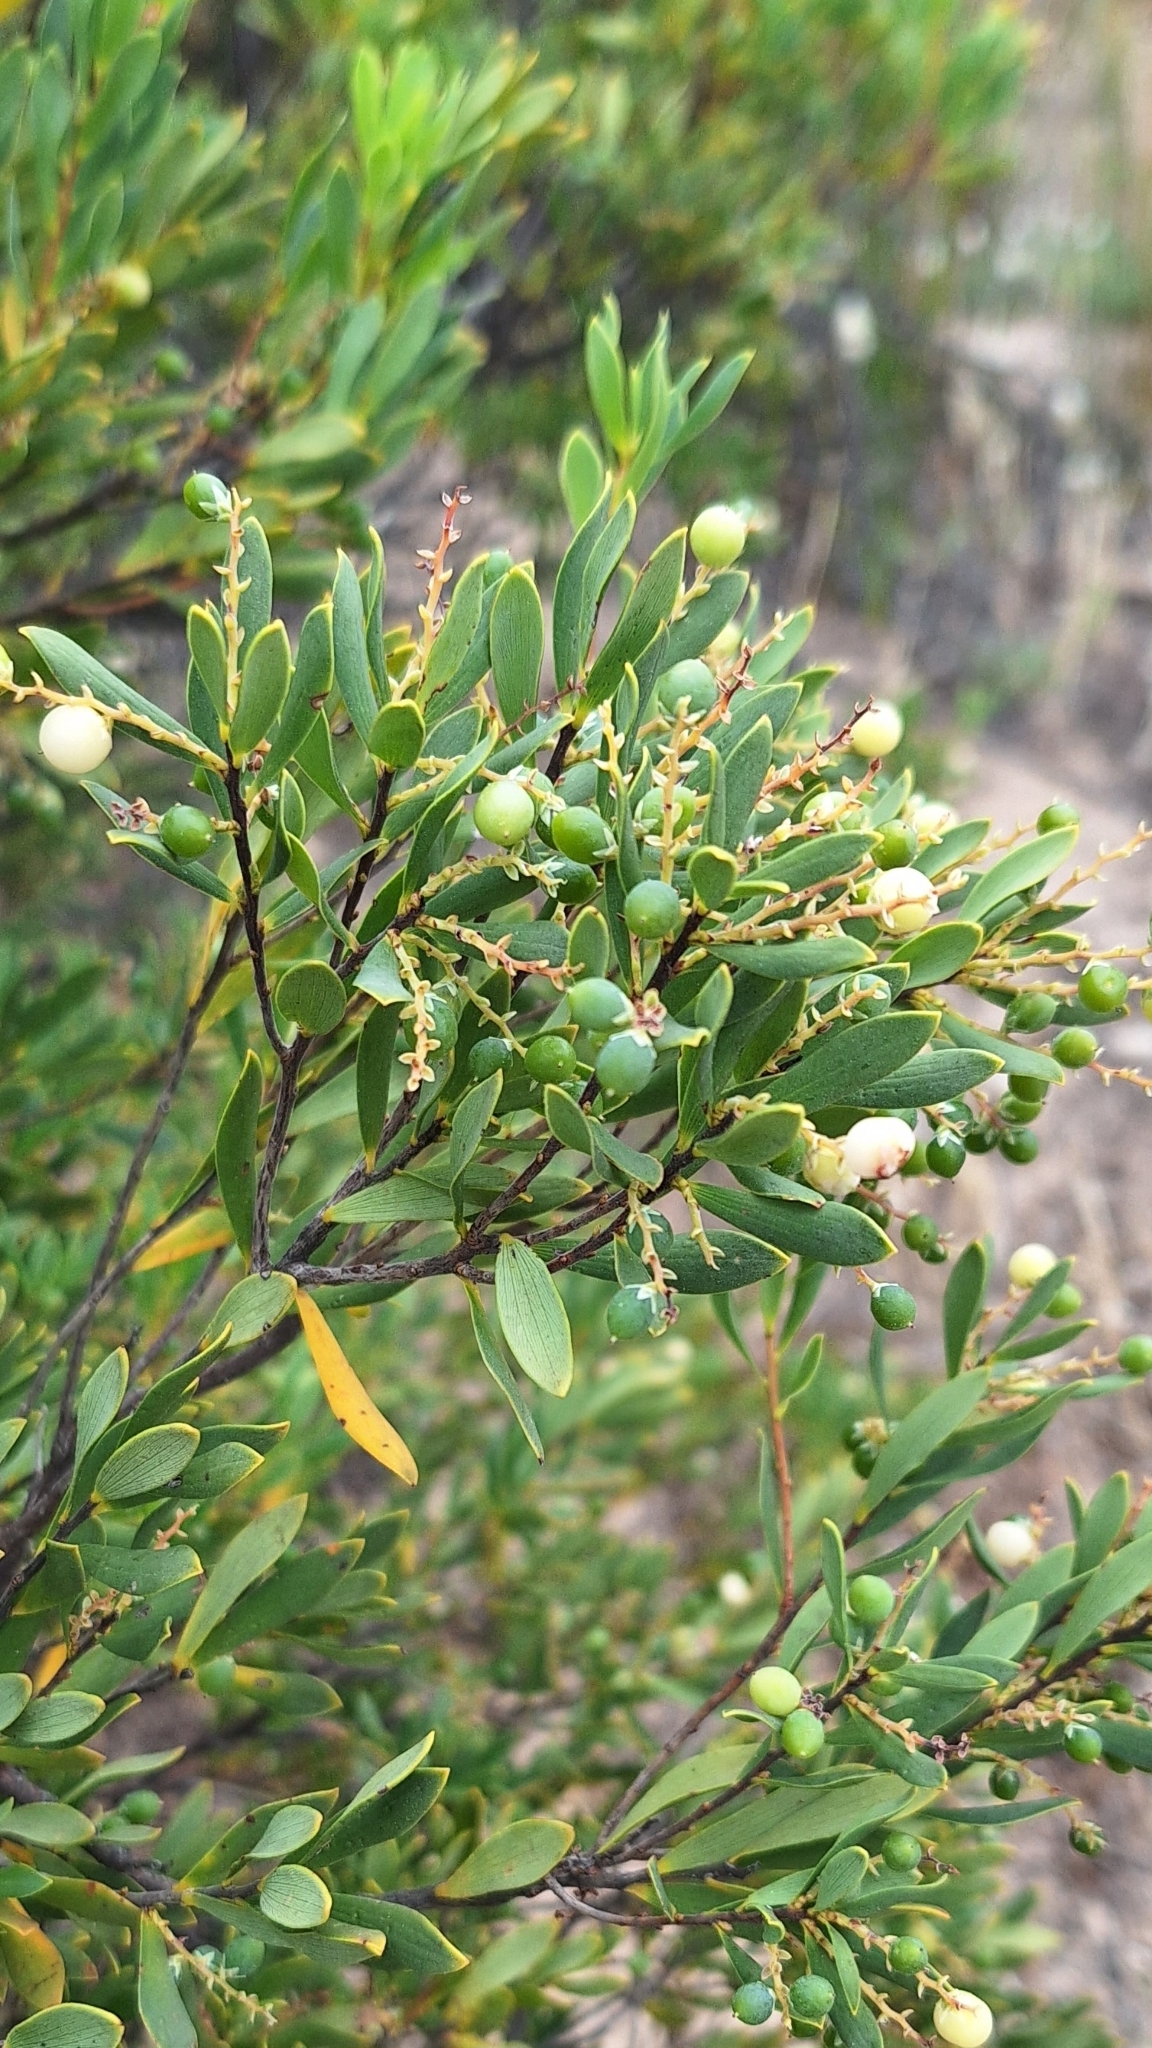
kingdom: Plantae
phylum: Tracheophyta
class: Magnoliopsida
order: Ericales
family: Ericaceae
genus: Leptecophylla
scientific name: Leptecophylla parvifolia
